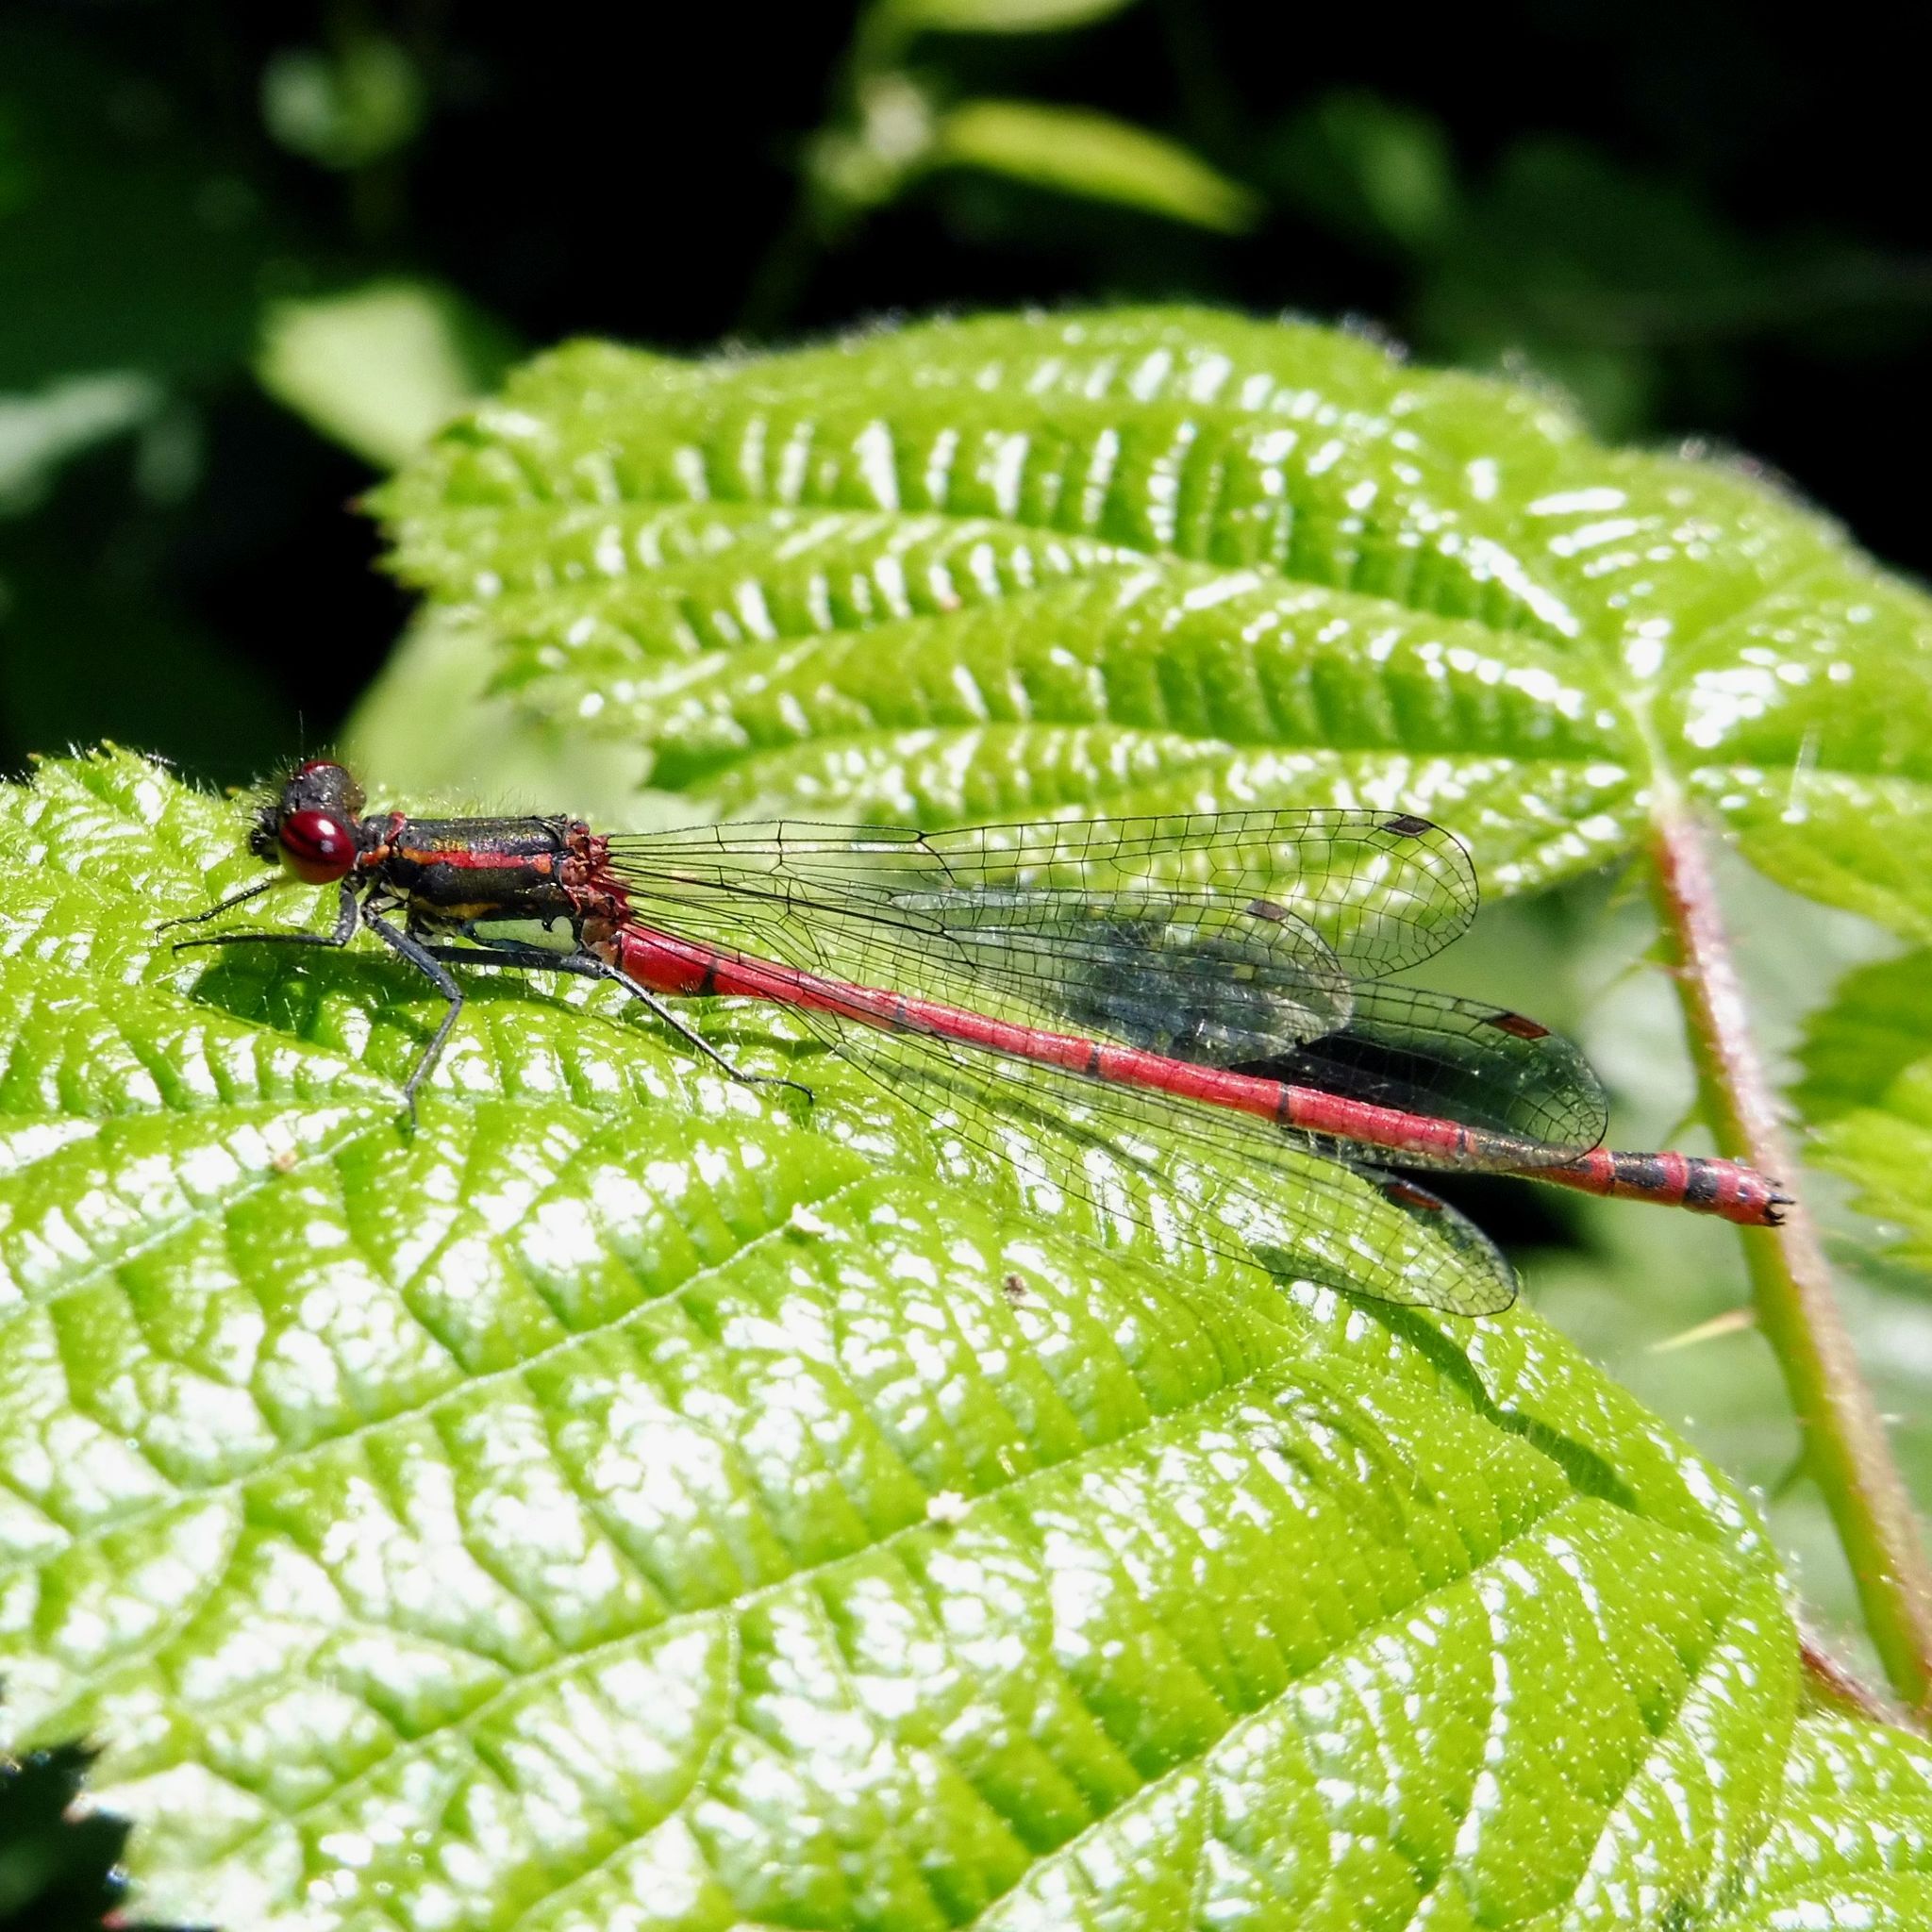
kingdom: Animalia
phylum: Arthropoda
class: Insecta
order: Odonata
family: Coenagrionidae
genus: Pyrrhosoma
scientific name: Pyrrhosoma nymphula
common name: Large red damsel
